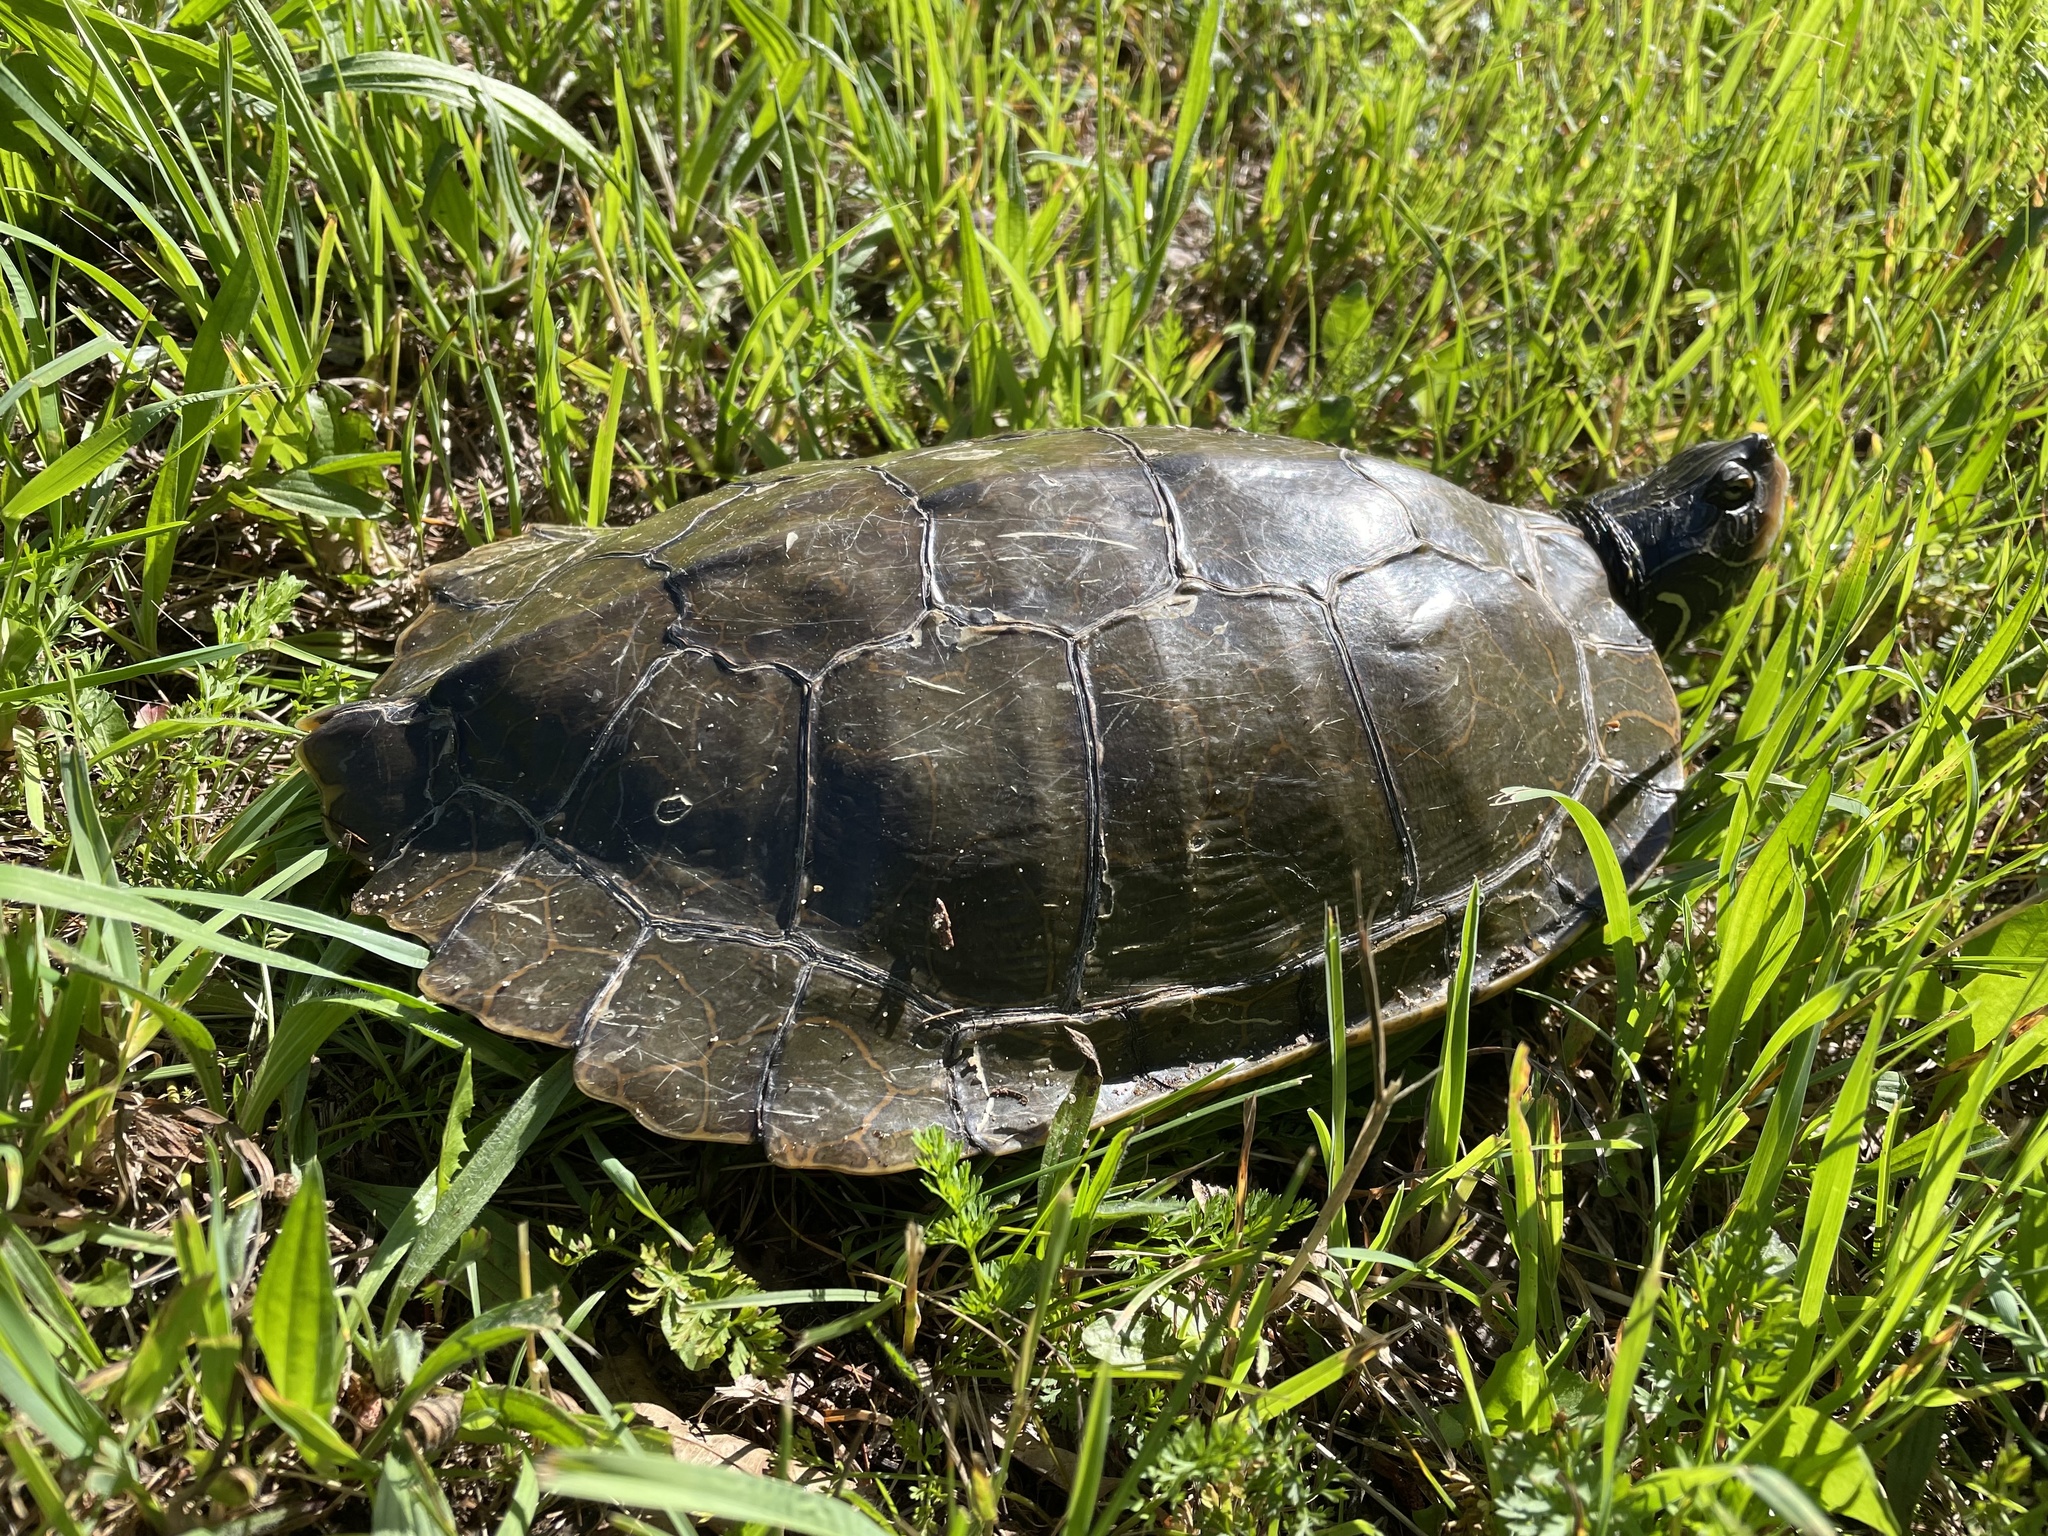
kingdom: Animalia
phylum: Chordata
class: Testudines
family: Emydidae
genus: Graptemys
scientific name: Graptemys geographica
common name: Common map turtle
